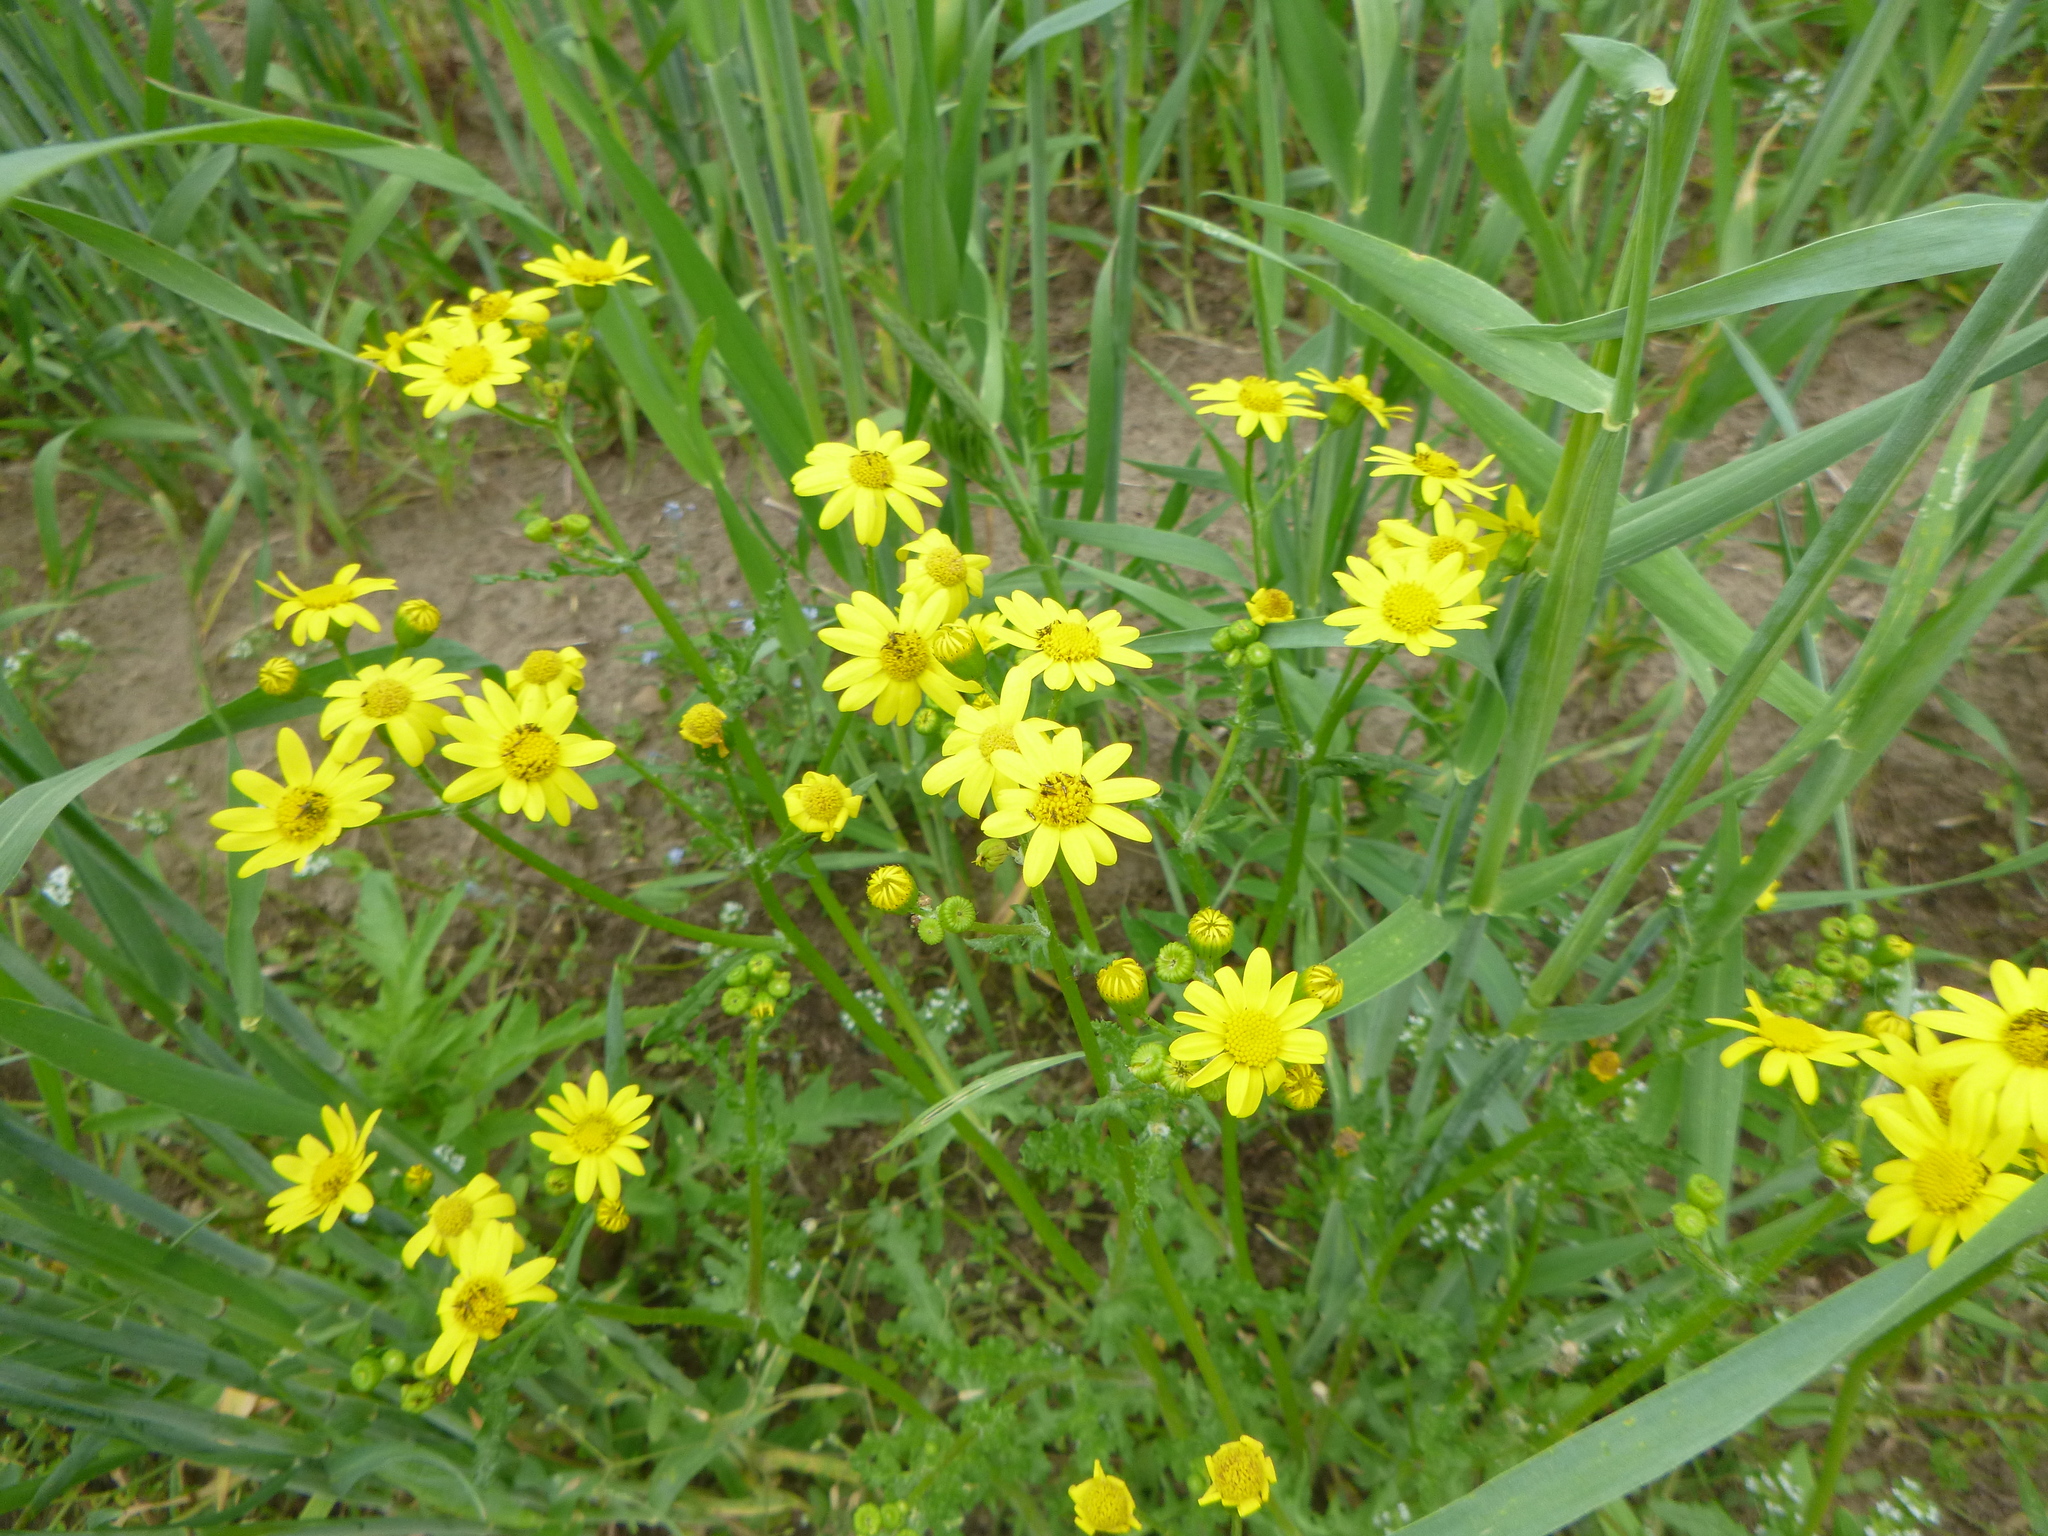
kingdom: Plantae
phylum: Tracheophyta
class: Magnoliopsida
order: Asterales
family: Asteraceae
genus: Senecio
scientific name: Senecio vernalis
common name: Eastern groundsel
